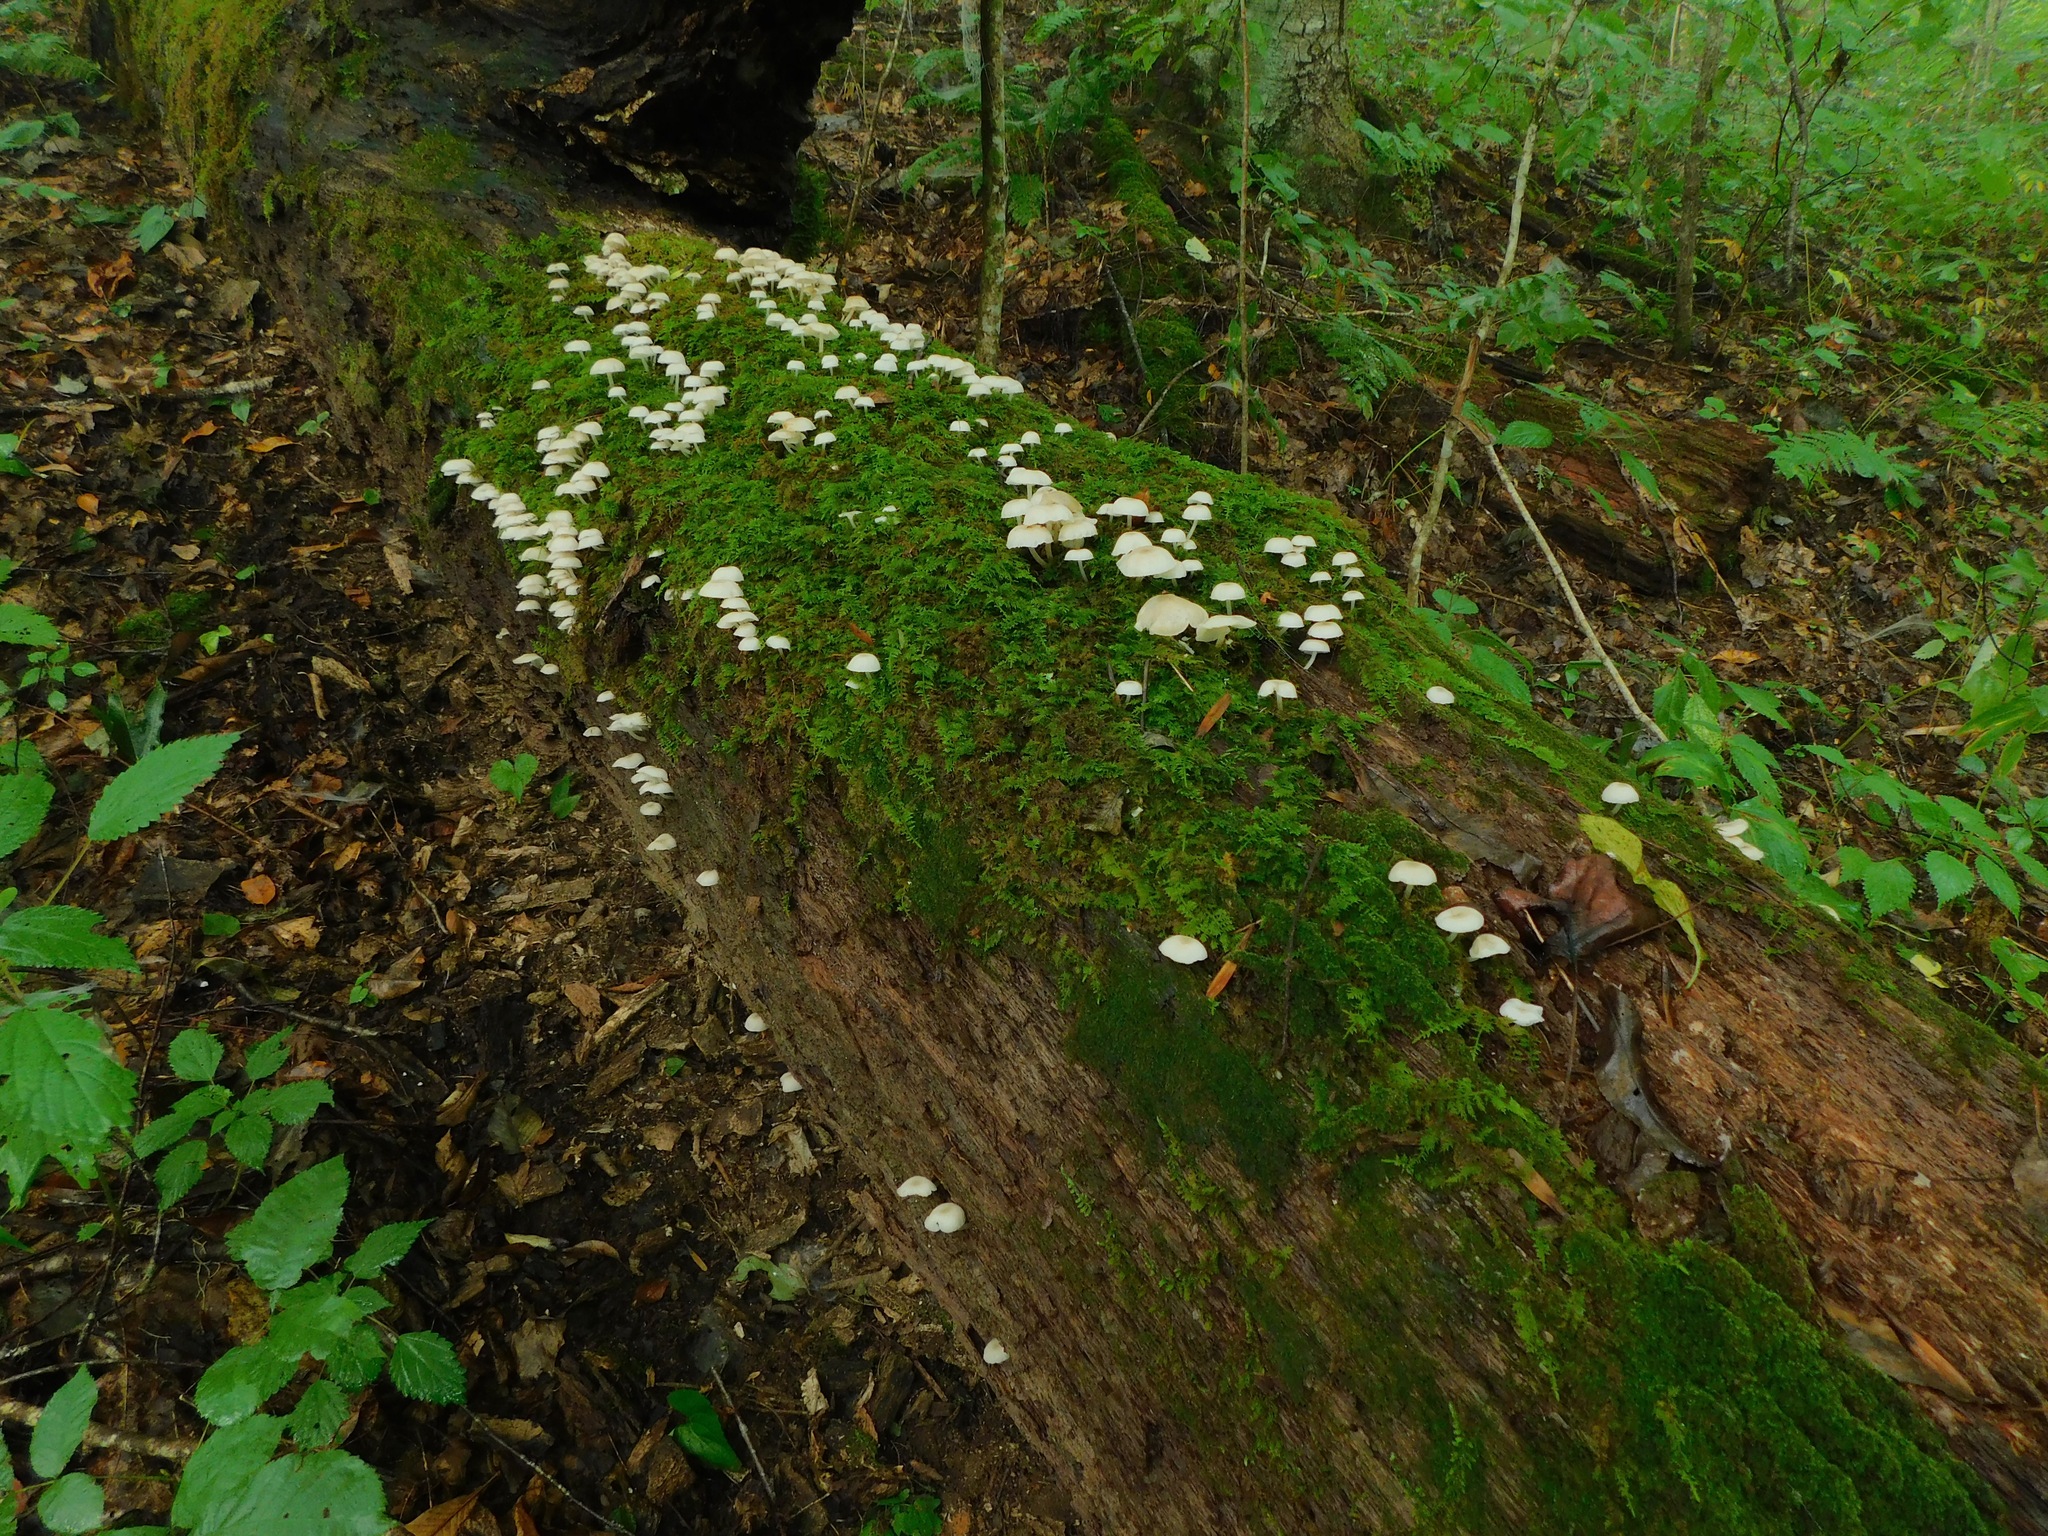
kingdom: Fungi
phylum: Basidiomycota
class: Agaricomycetes
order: Agaricales
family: Mycenaceae
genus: Roridomyces
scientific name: Roridomyces austrororidus
